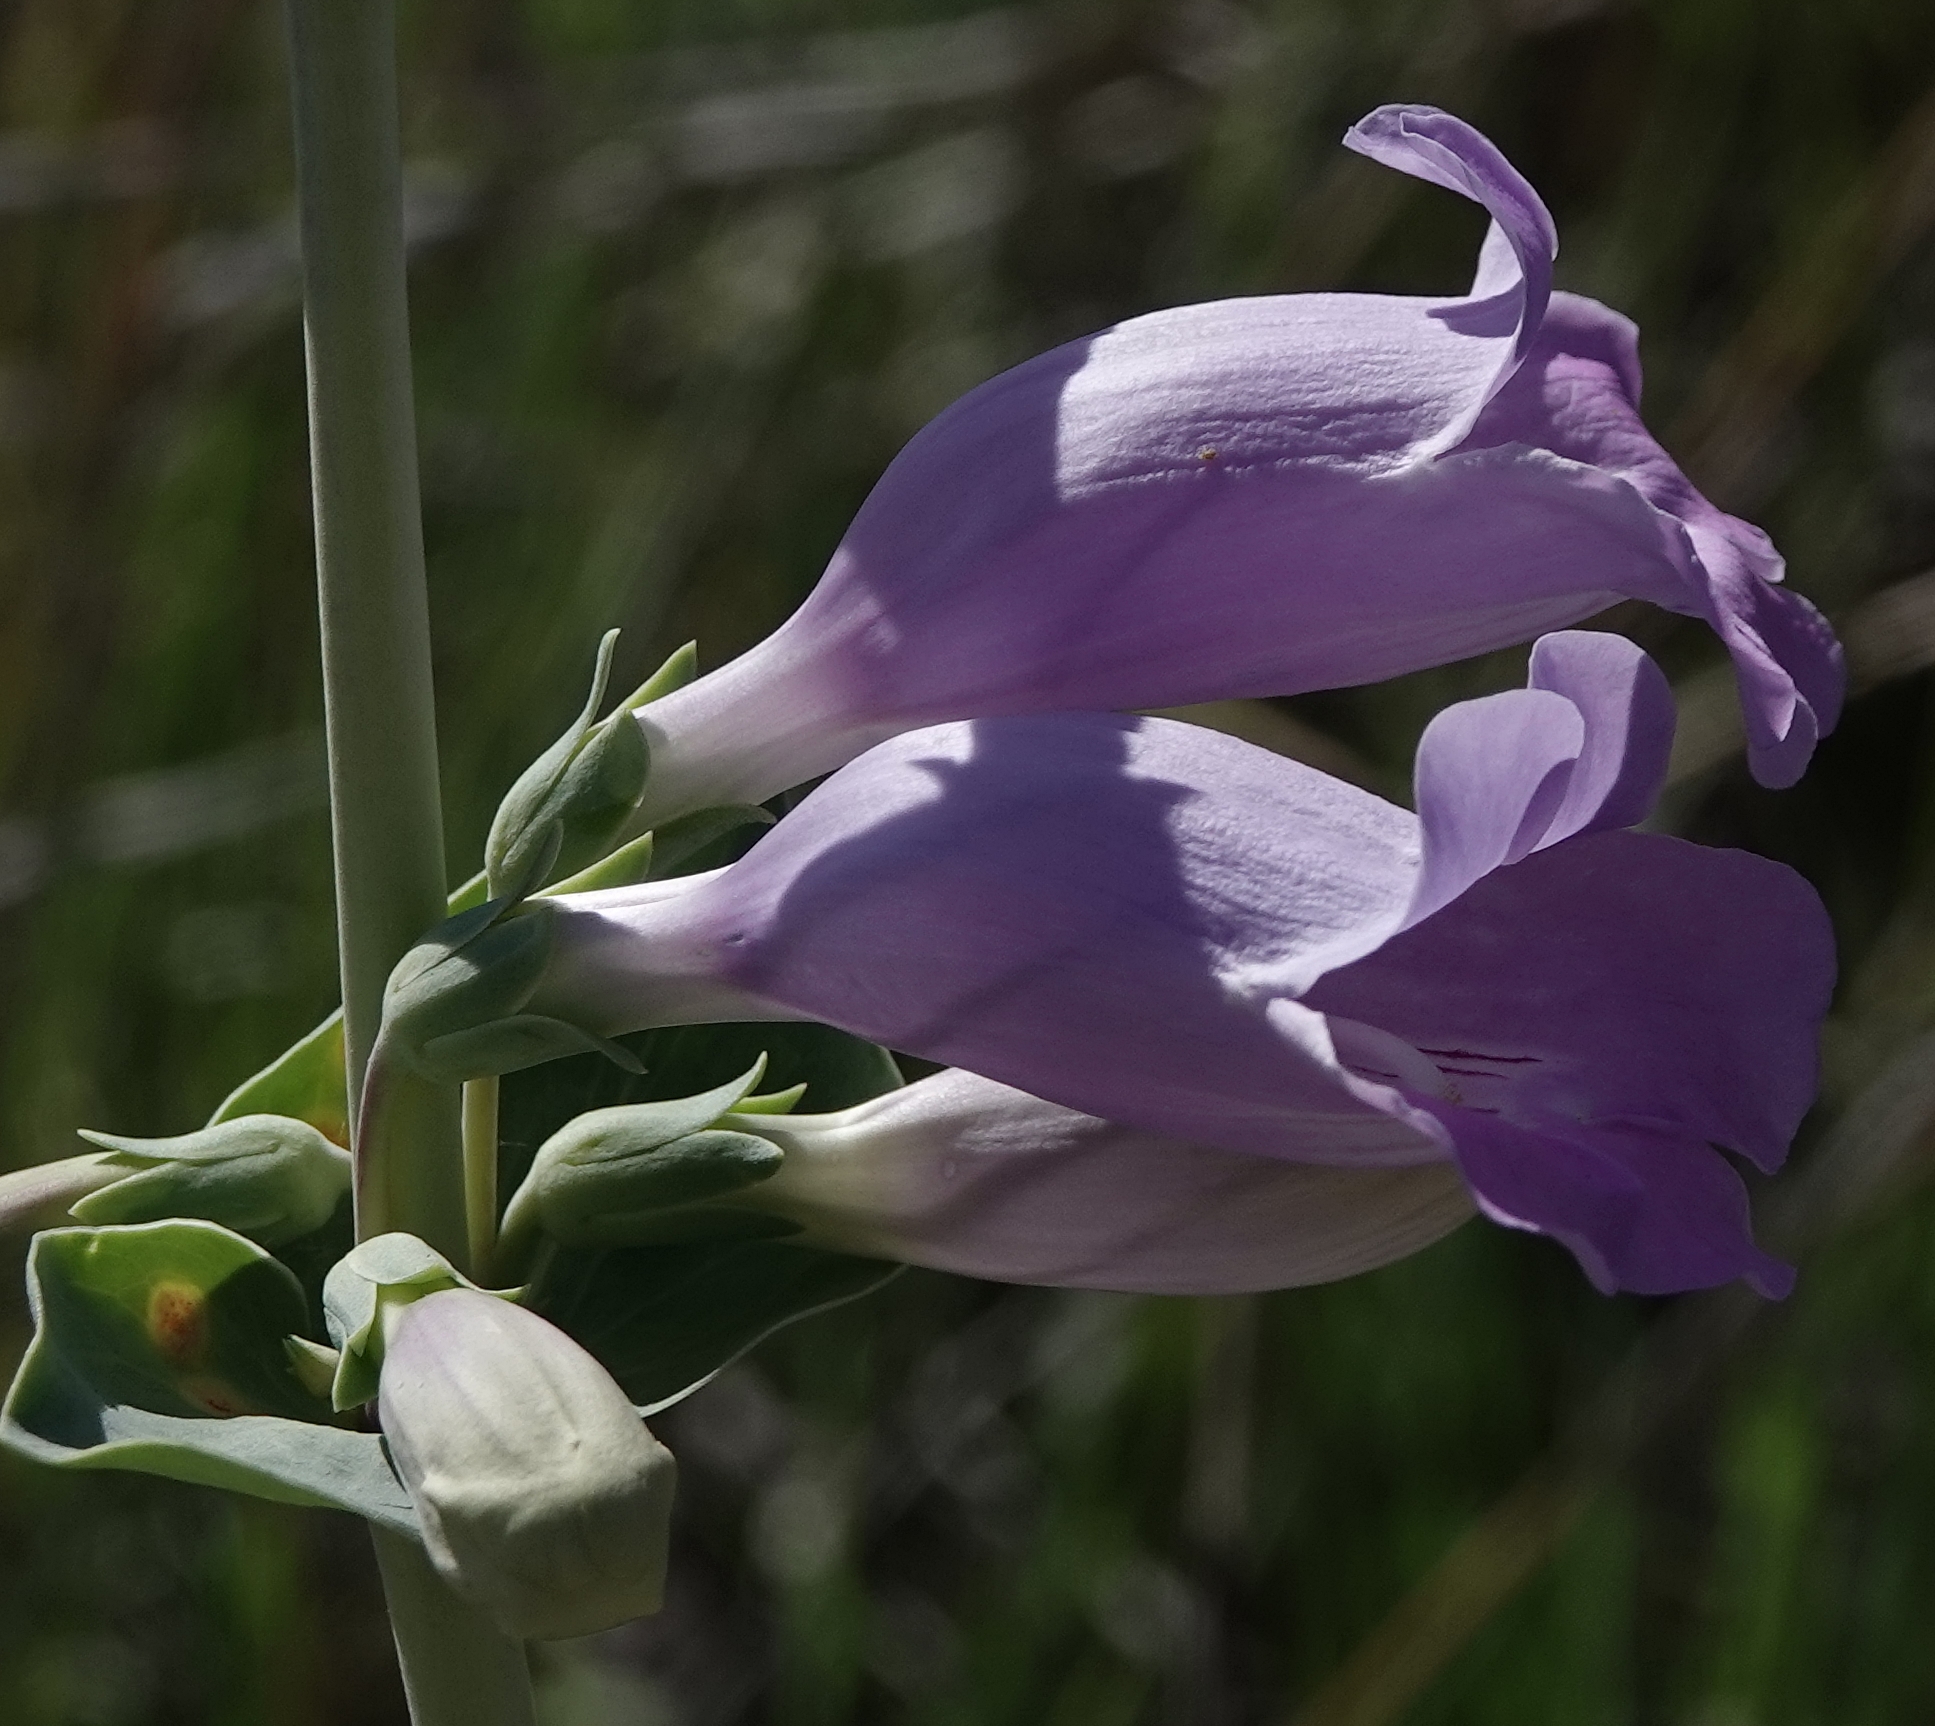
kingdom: Plantae
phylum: Tracheophyta
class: Magnoliopsida
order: Lamiales
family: Plantaginaceae
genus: Penstemon
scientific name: Penstemon
